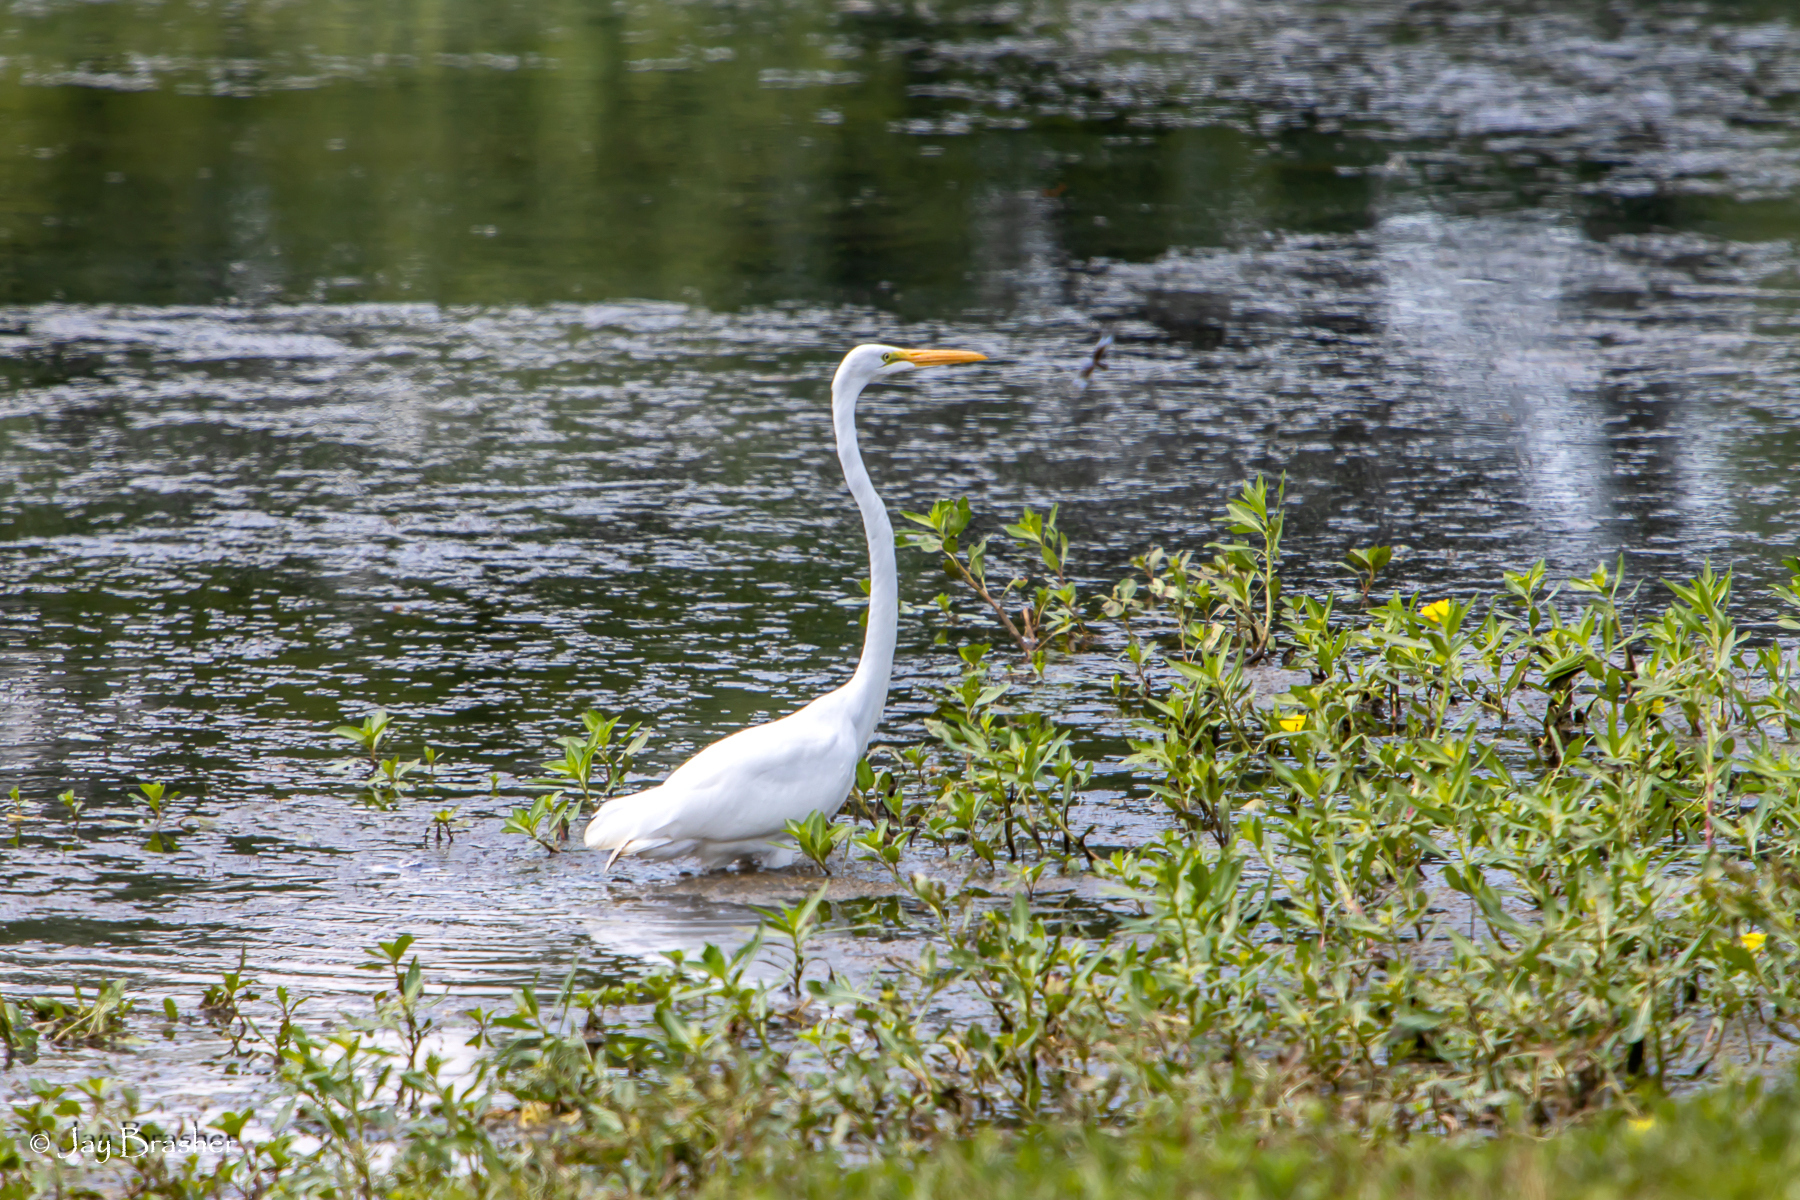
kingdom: Animalia
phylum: Chordata
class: Aves
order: Pelecaniformes
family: Ardeidae
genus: Ardea
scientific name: Ardea alba
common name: Great egret
